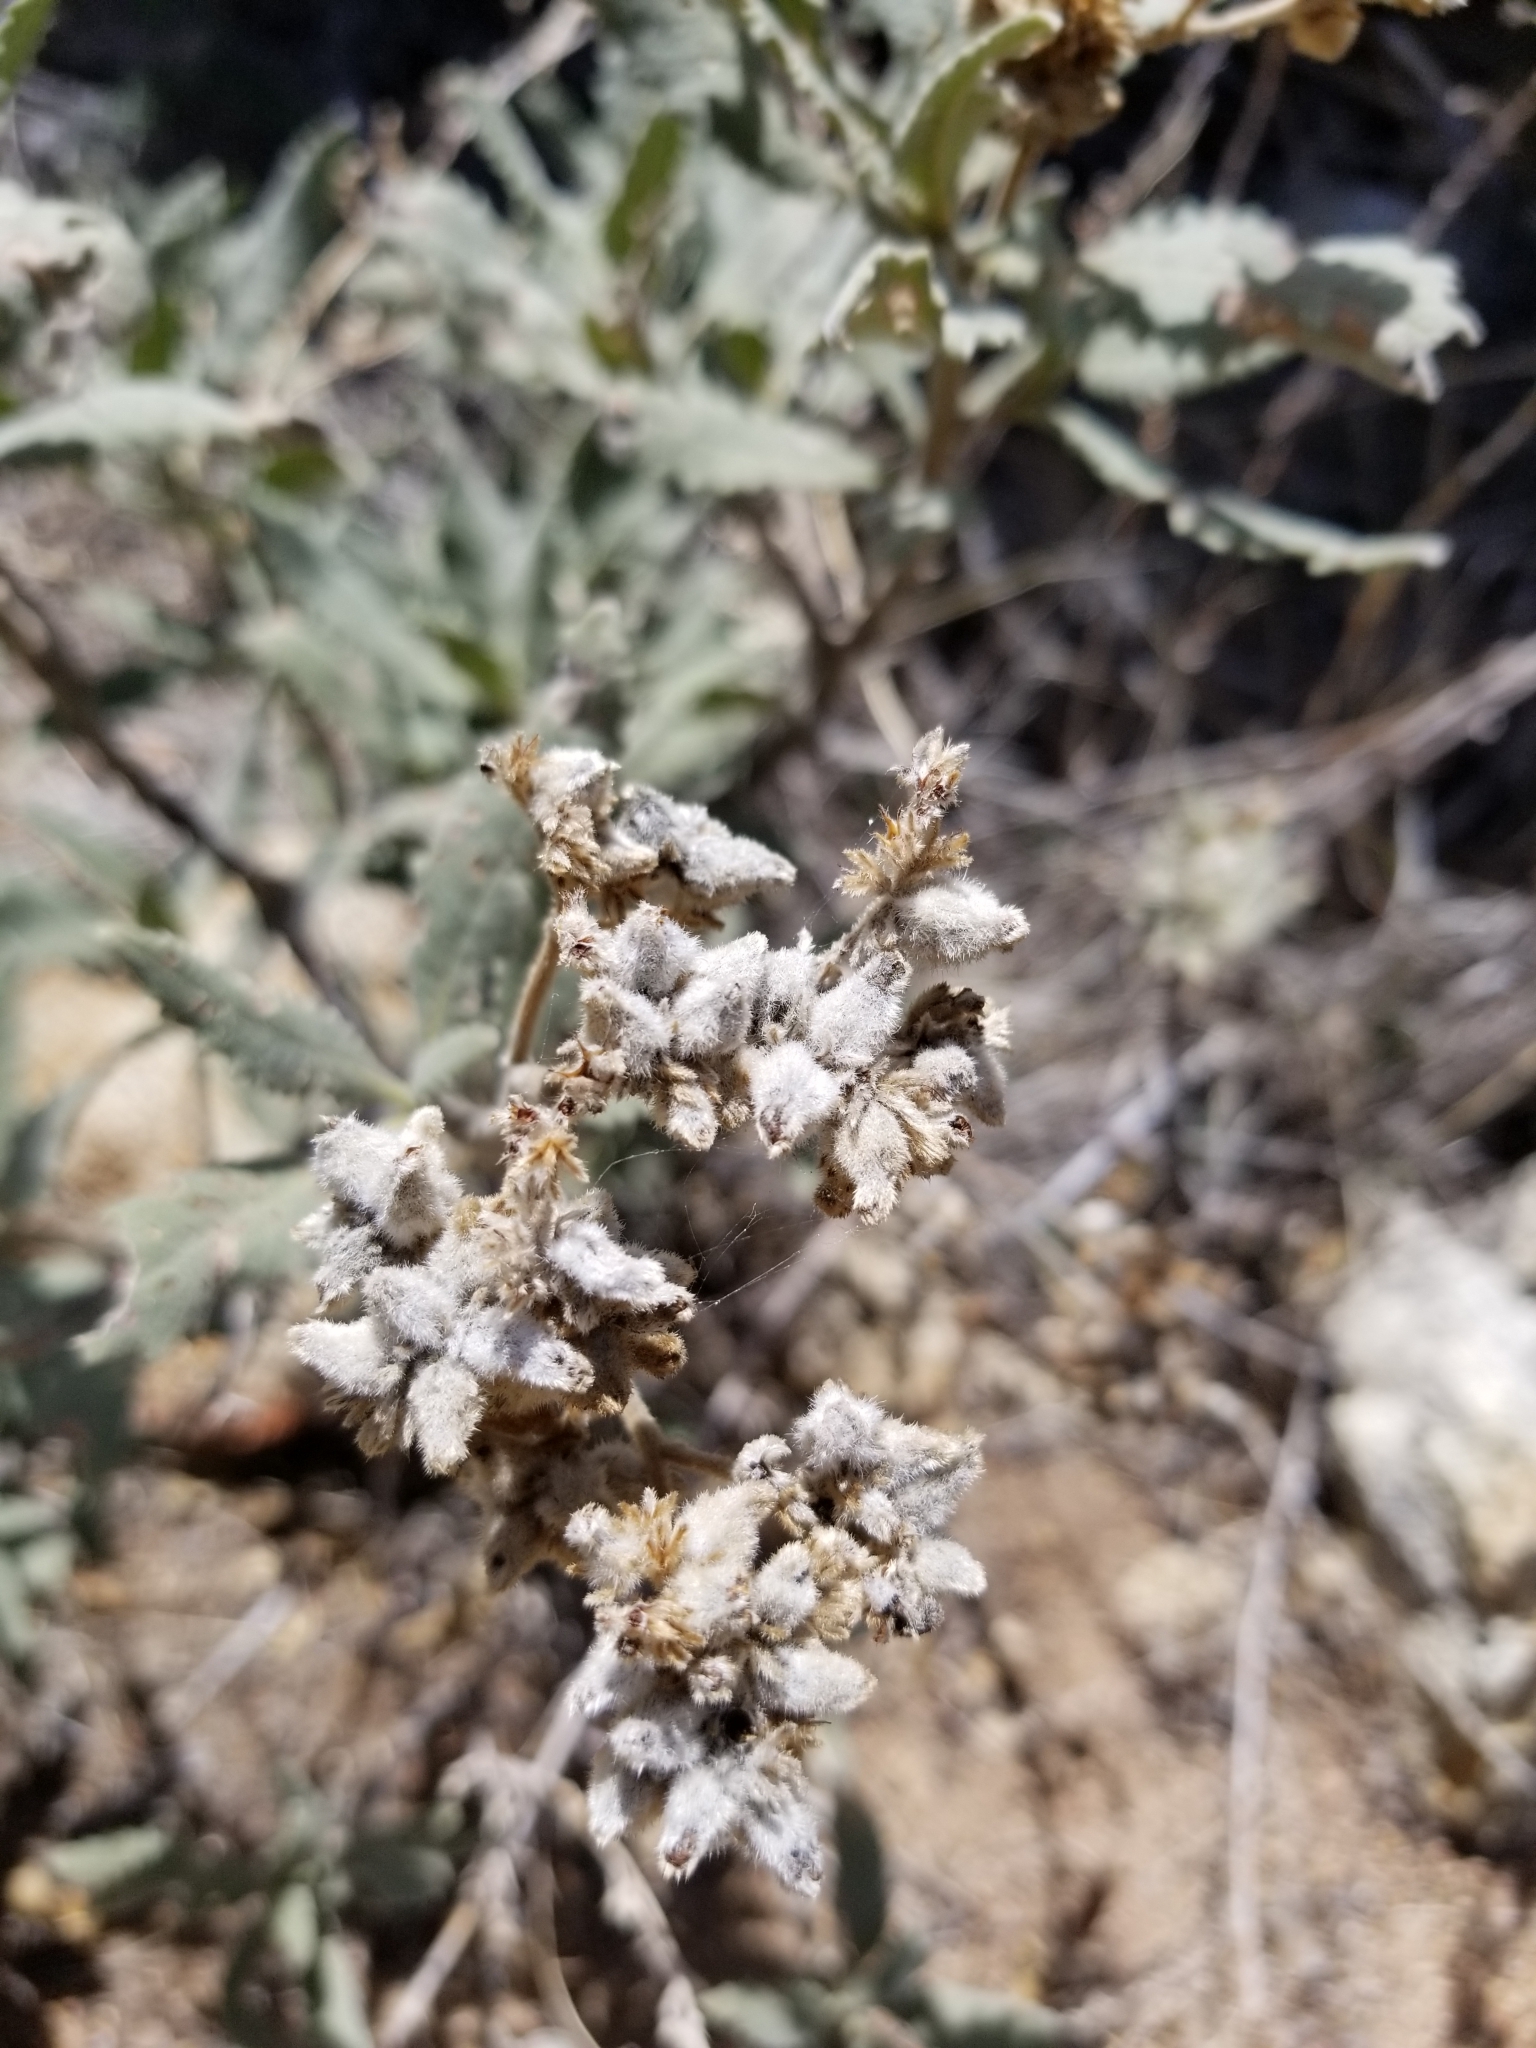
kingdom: Plantae
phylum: Tracheophyta
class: Magnoliopsida
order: Boraginales
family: Namaceae
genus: Eriodictyon
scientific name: Eriodictyon crassifolium
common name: Thick-leaf yerba-santa
